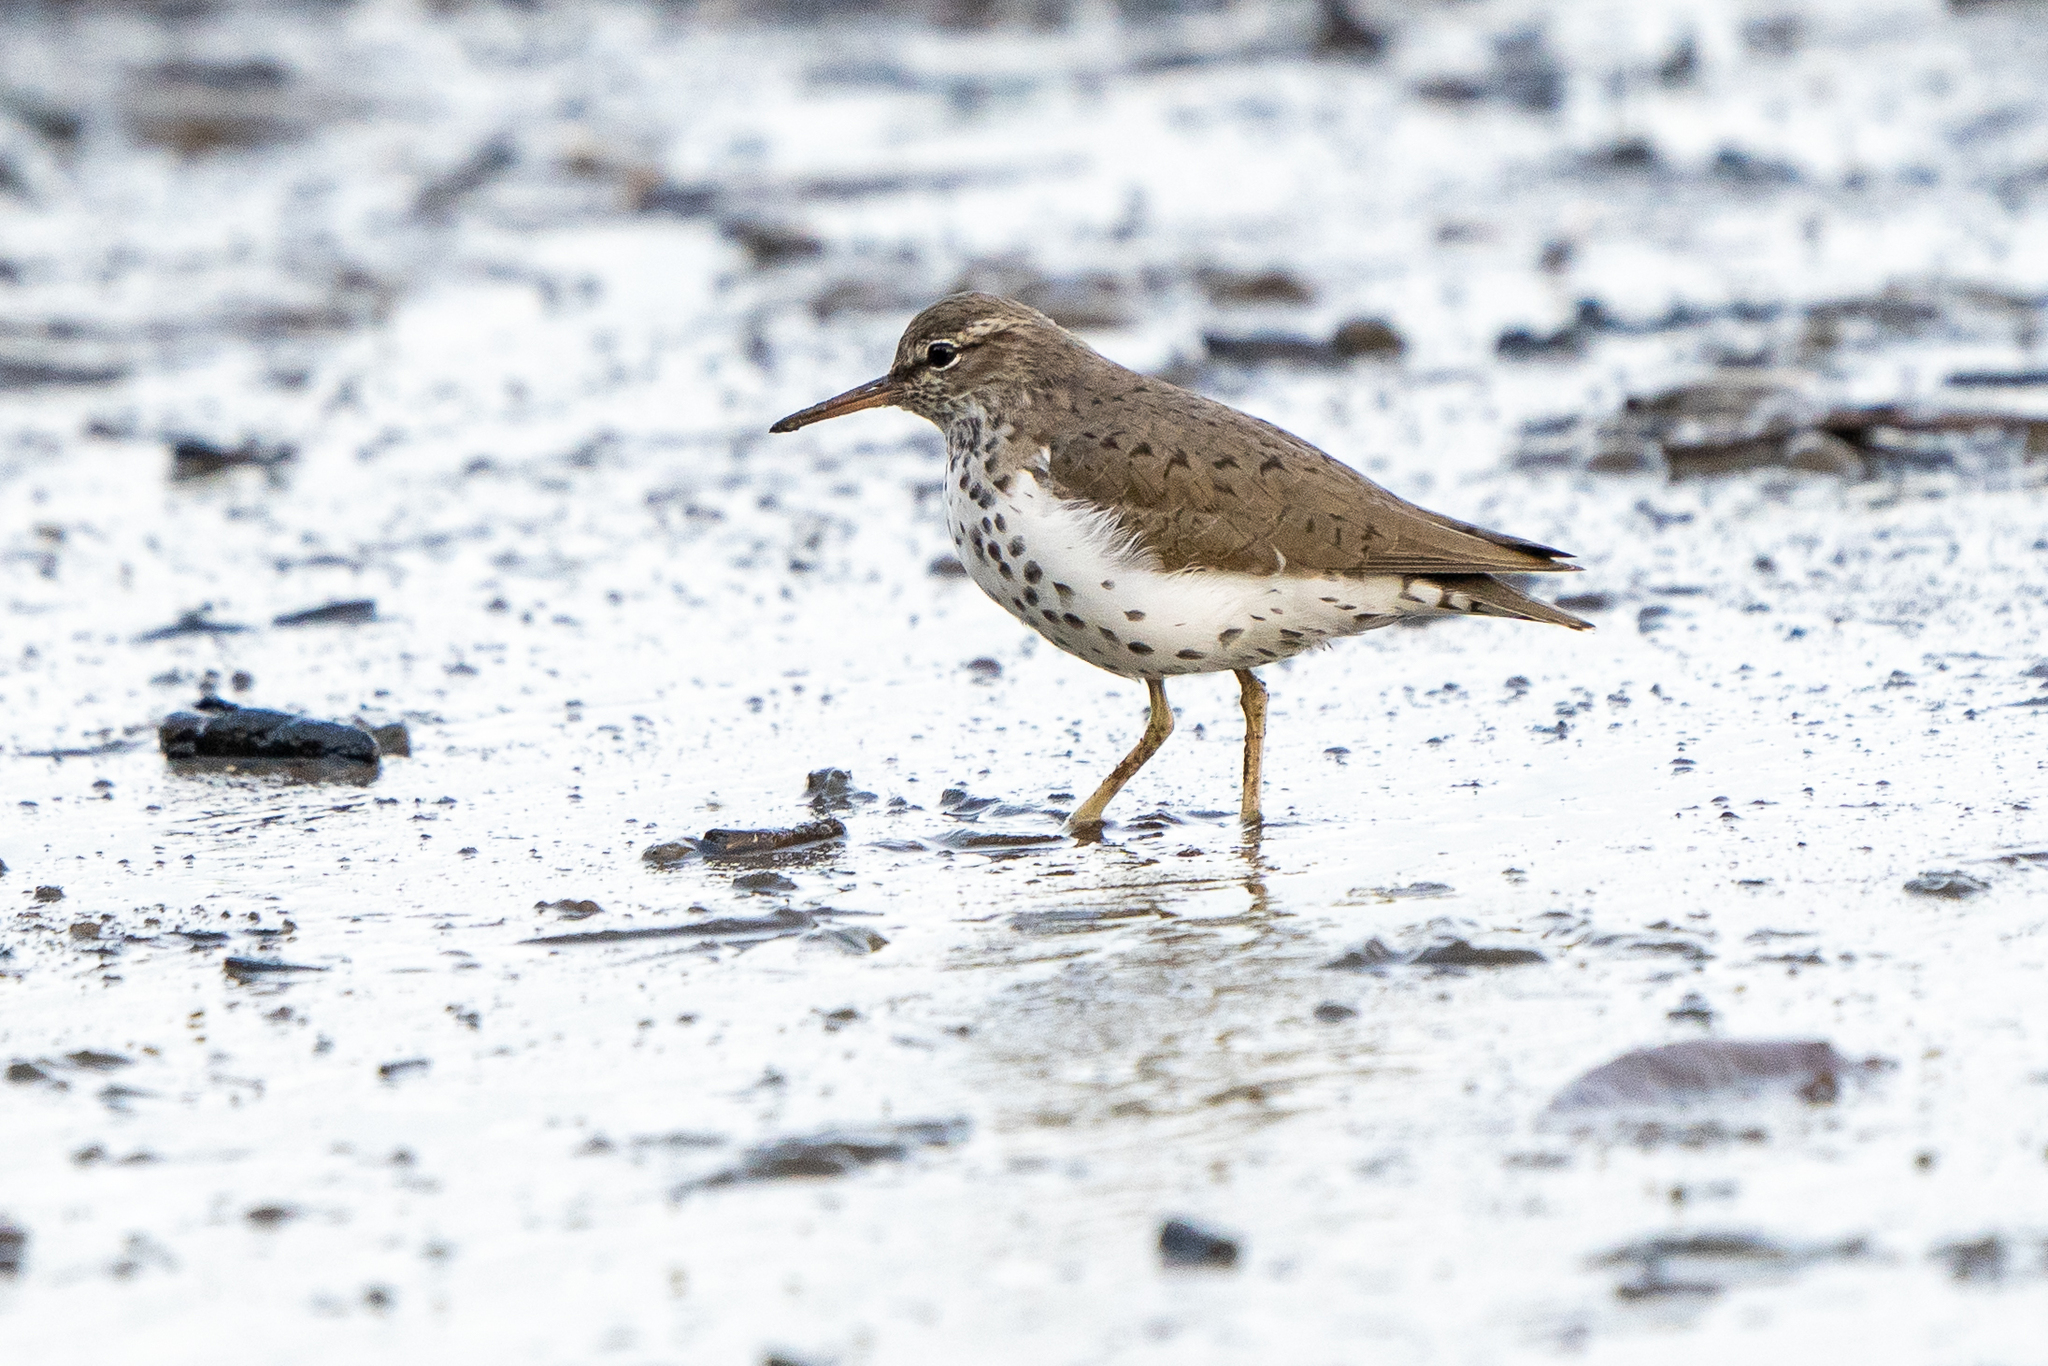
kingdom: Animalia
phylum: Chordata
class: Aves
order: Charadriiformes
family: Scolopacidae
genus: Actitis
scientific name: Actitis macularius
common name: Spotted sandpiper
